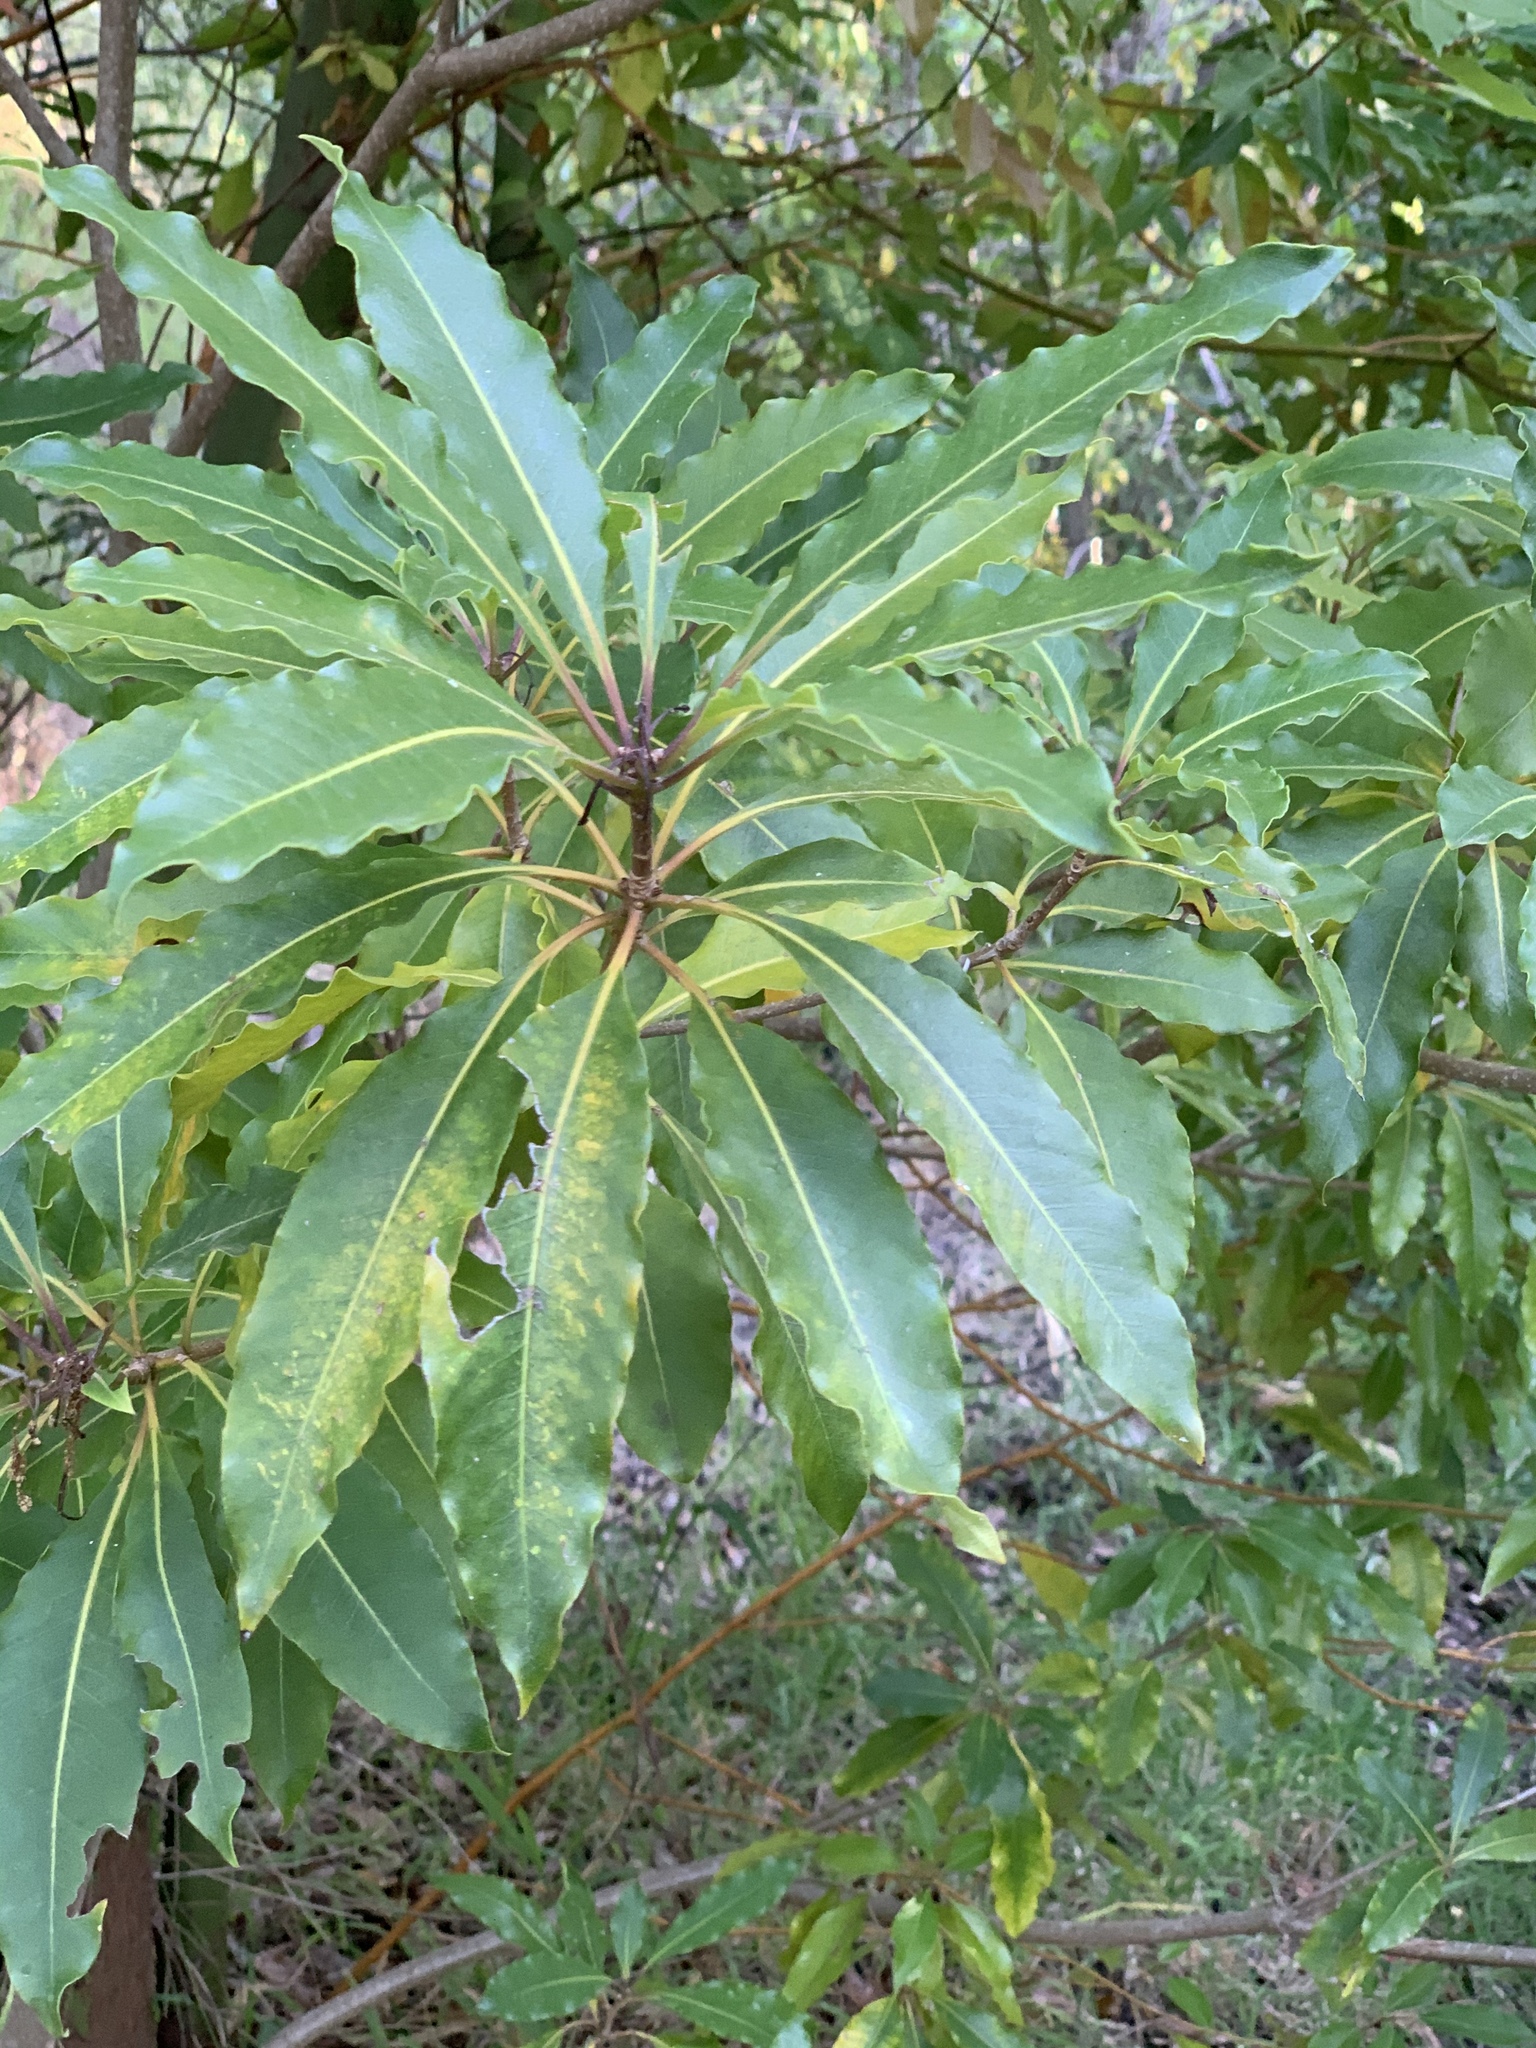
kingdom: Plantae
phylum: Tracheophyta
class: Magnoliopsida
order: Apiales
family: Pittosporaceae
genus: Pittosporum
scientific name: Pittosporum undulatum
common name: Australian cheesewood
